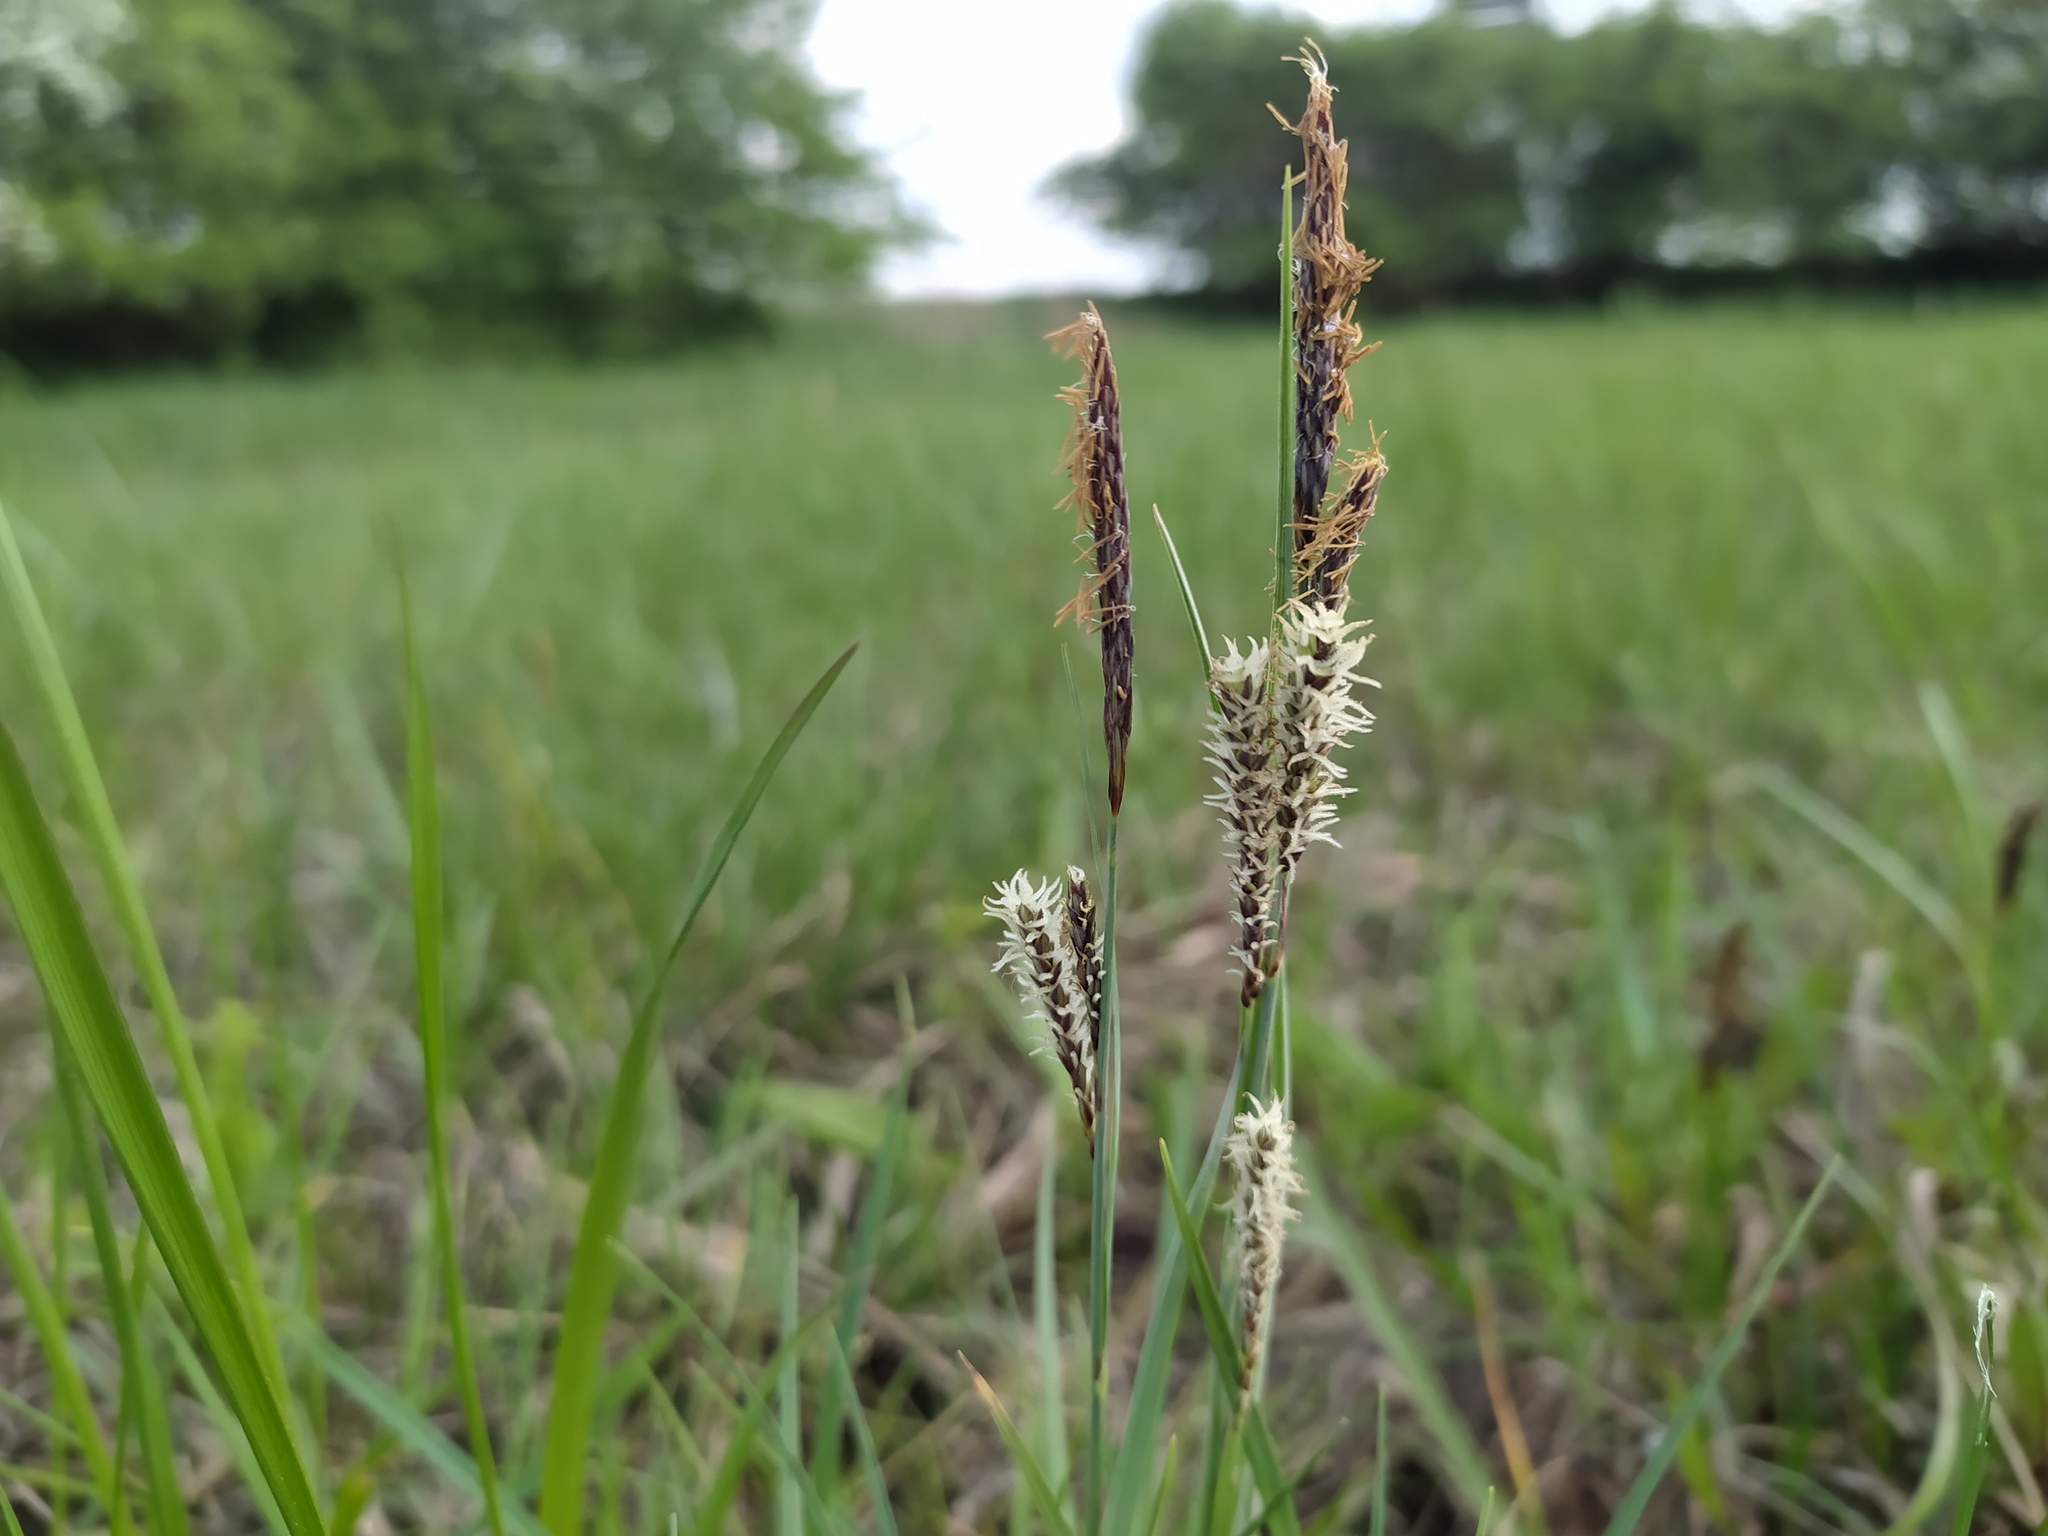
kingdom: Plantae
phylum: Tracheophyta
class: Liliopsida
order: Poales
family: Cyperaceae
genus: Carex
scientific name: Carex flacca
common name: Glaucous sedge
